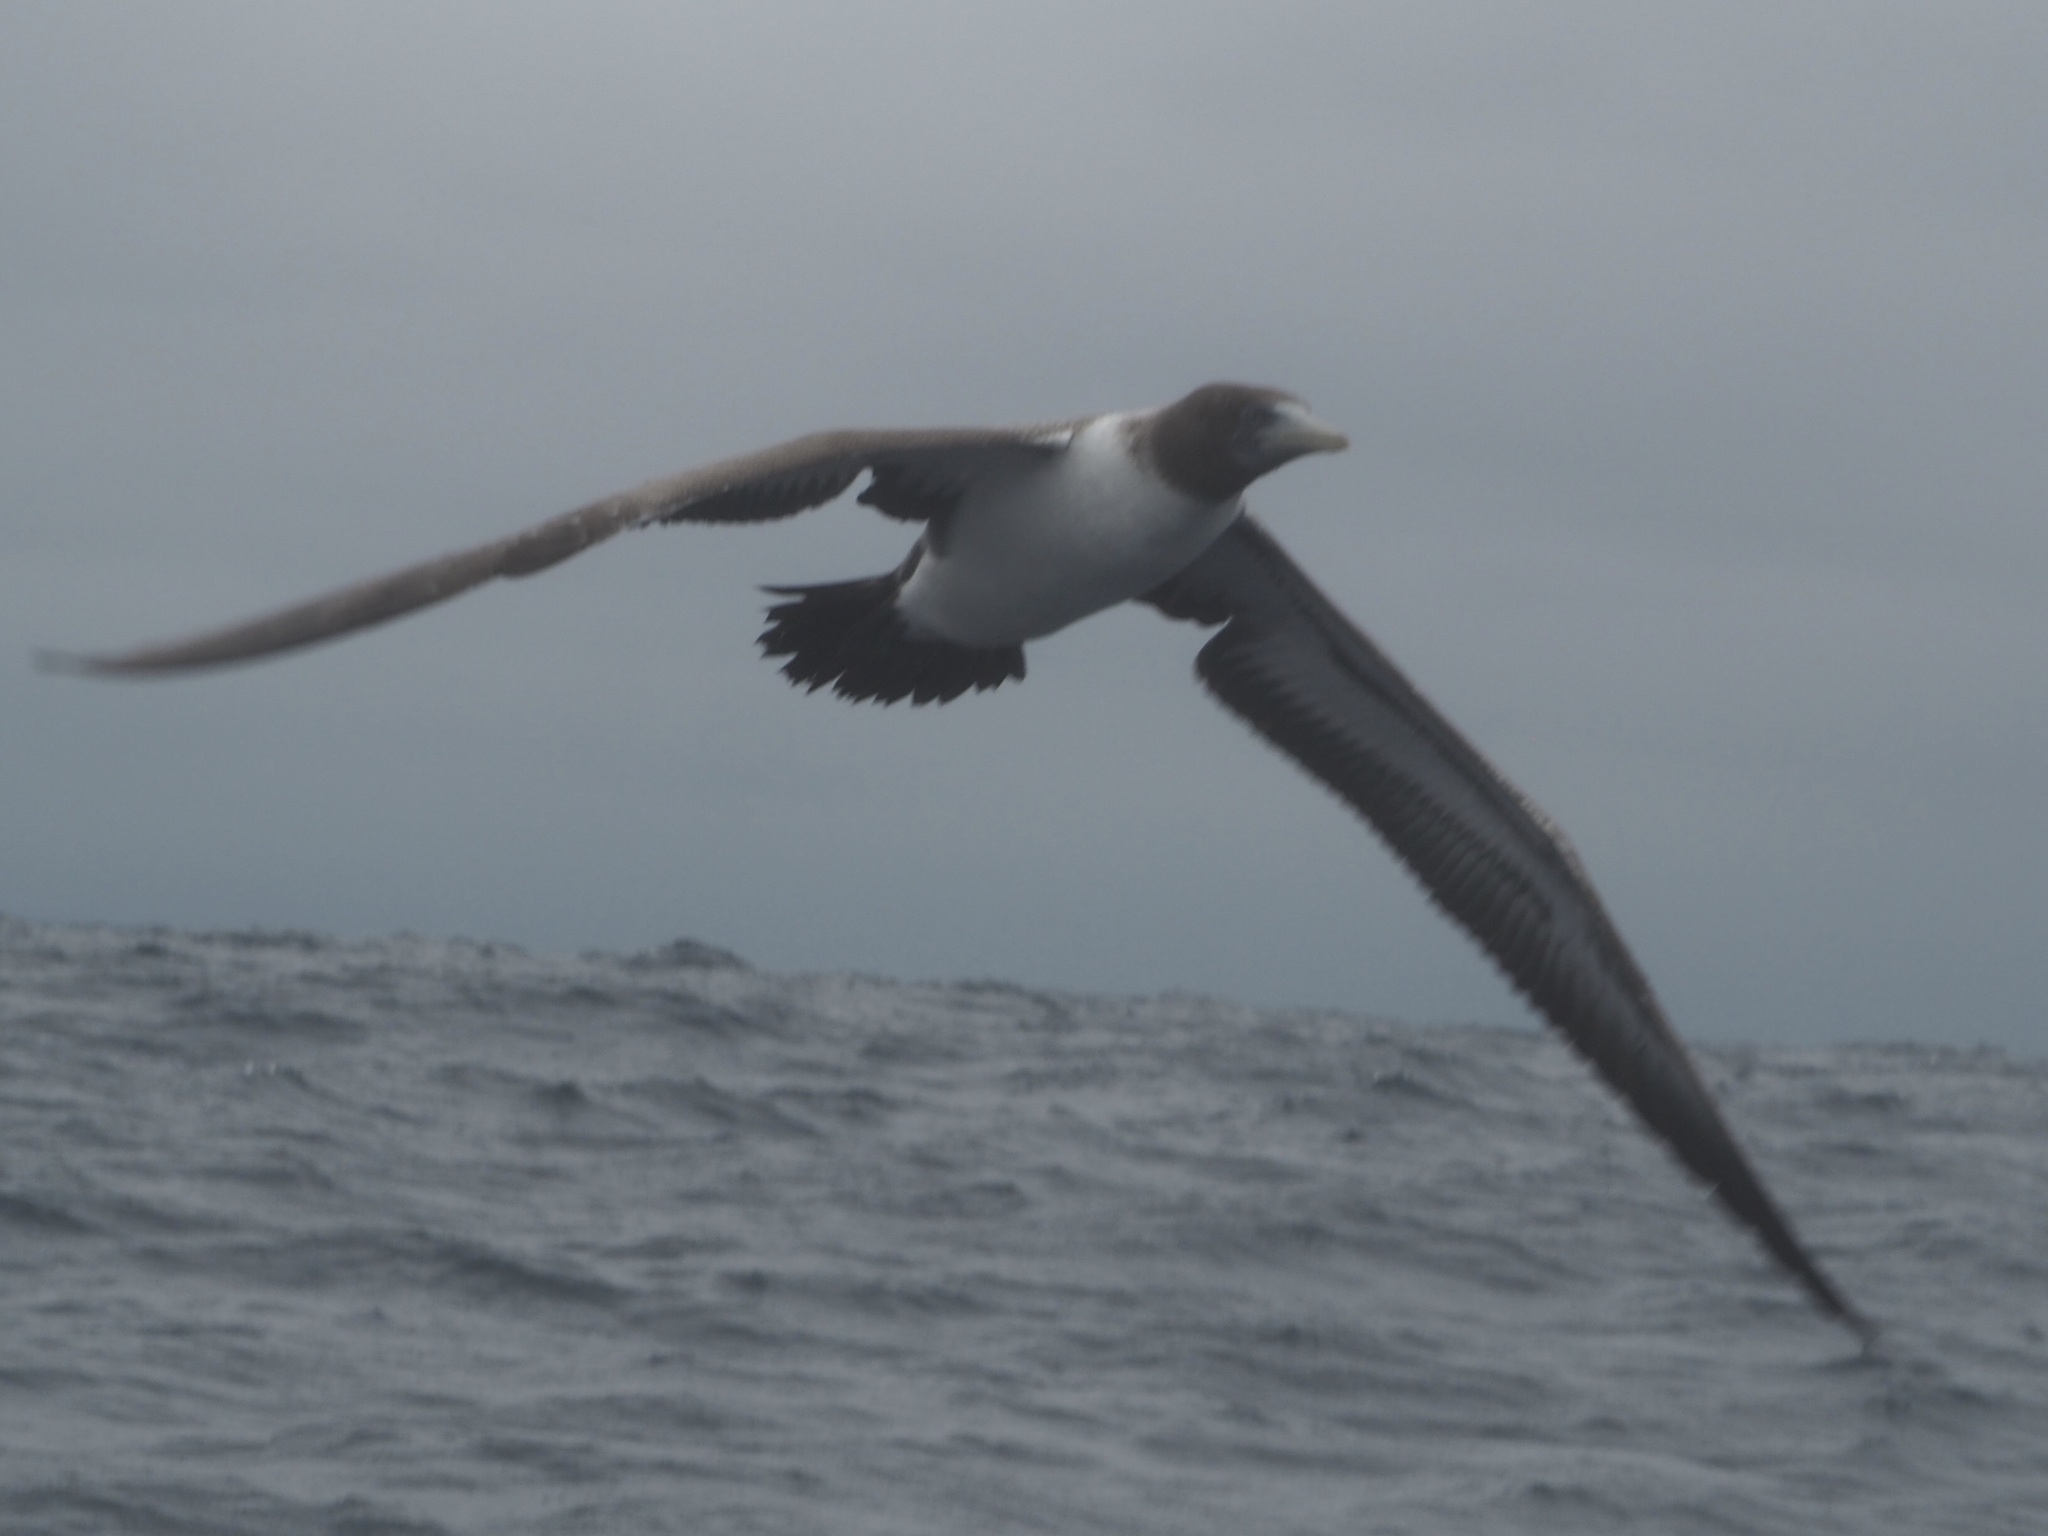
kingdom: Animalia
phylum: Chordata
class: Aves
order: Suliformes
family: Sulidae
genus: Sula
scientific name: Sula granti
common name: Nazca booby
